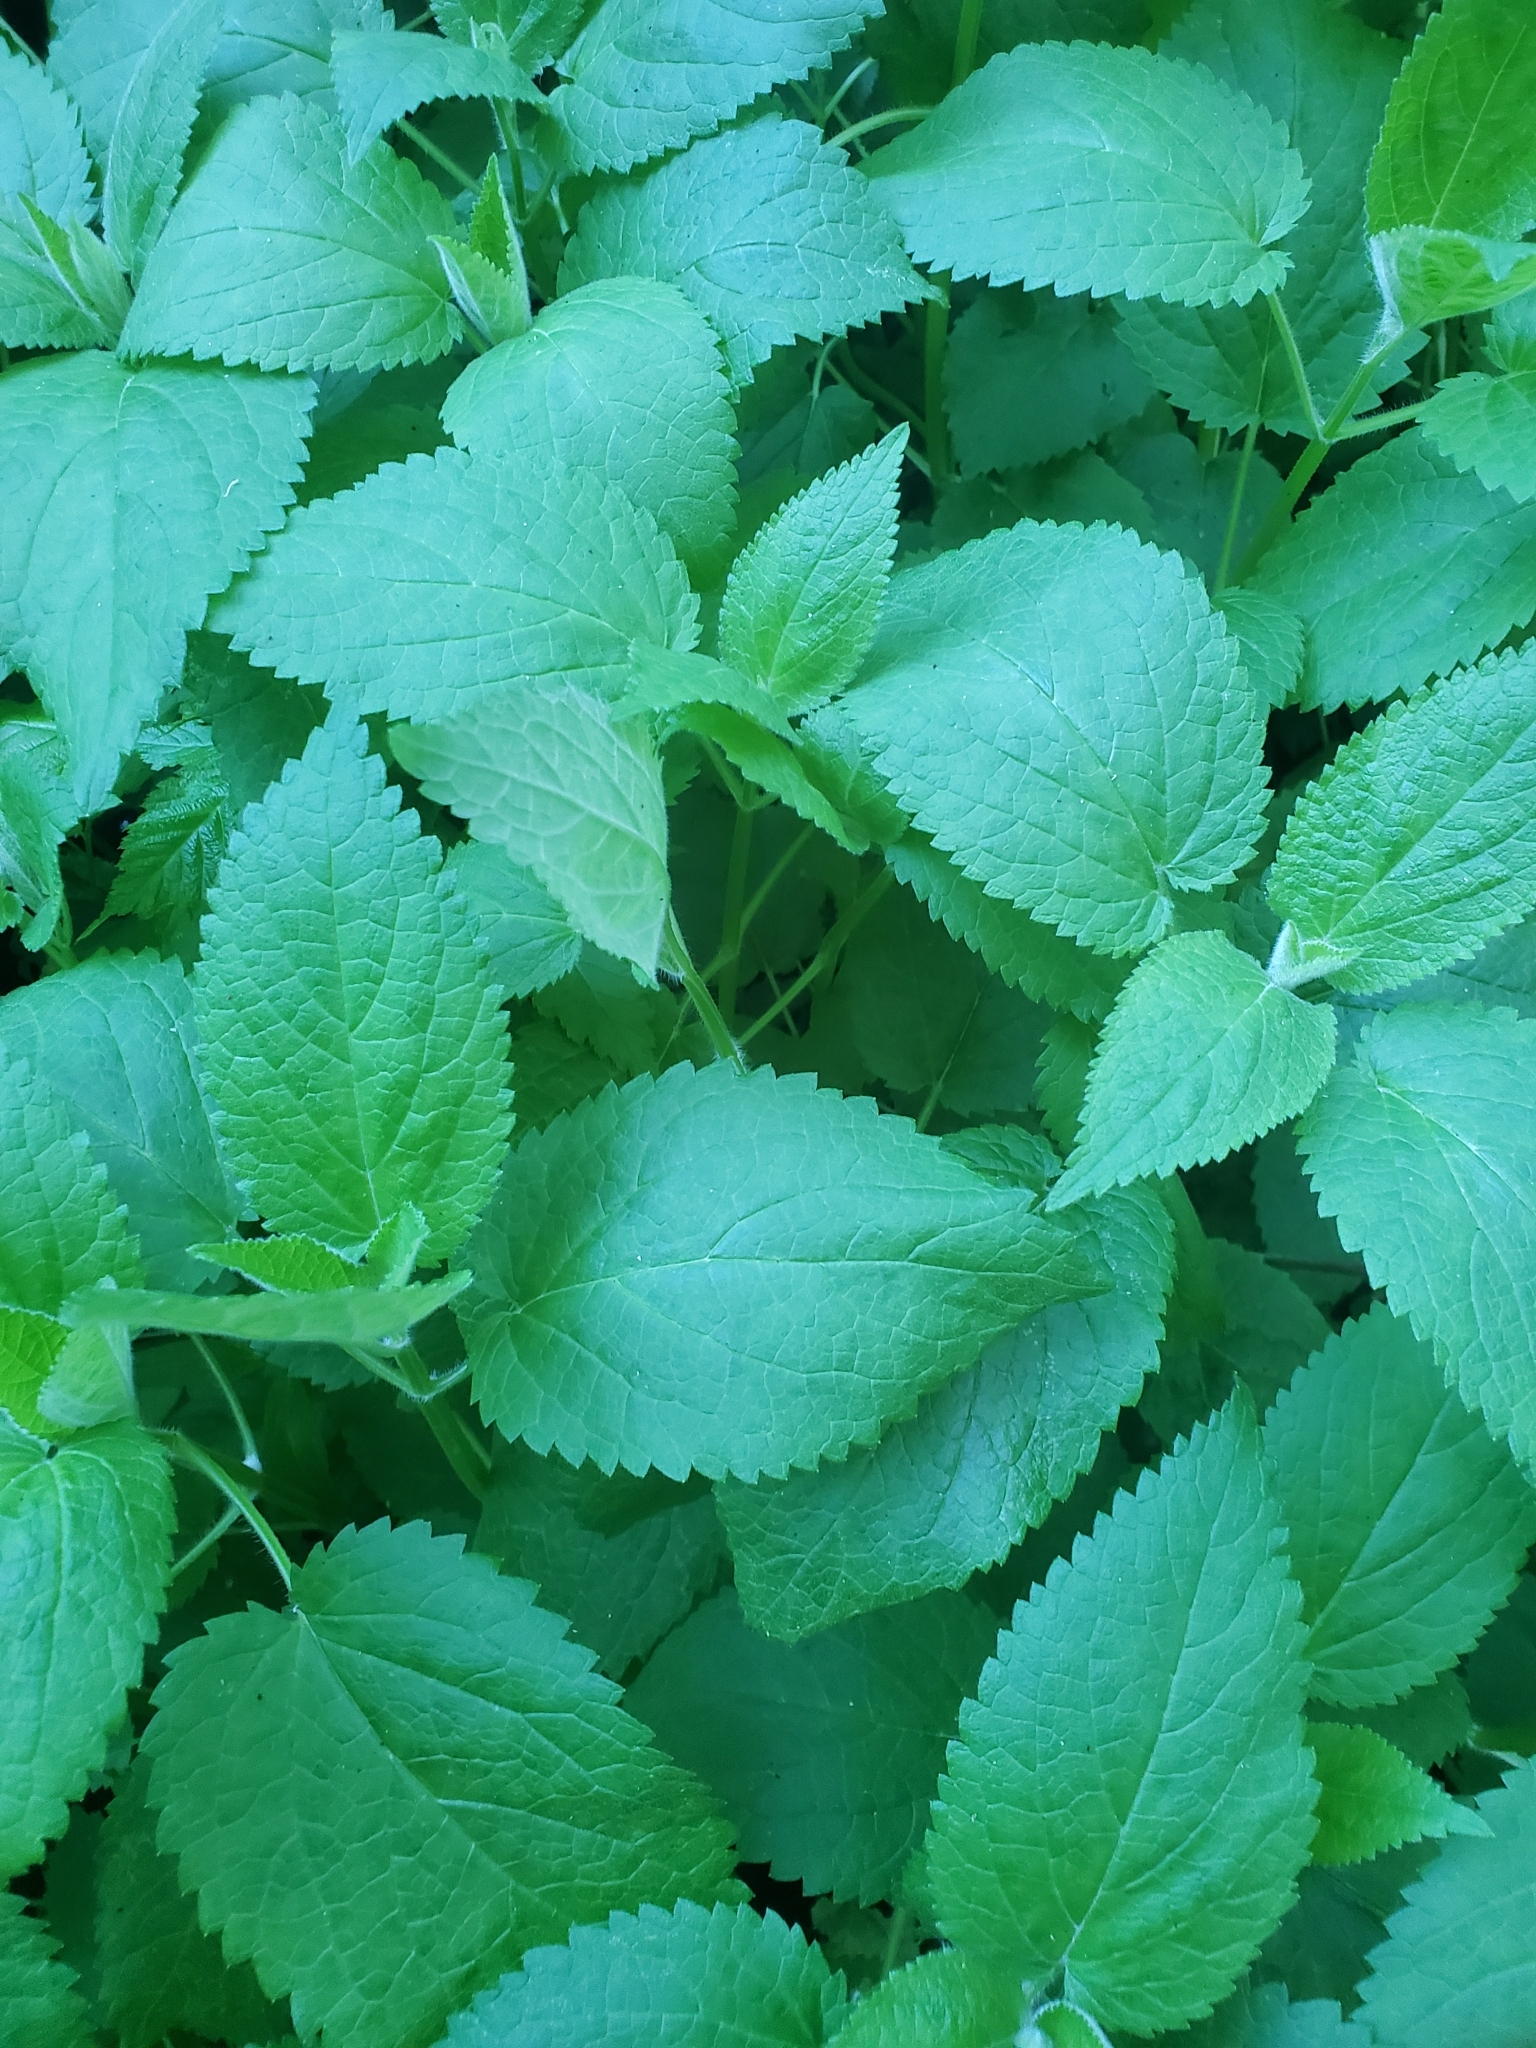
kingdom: Plantae
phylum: Tracheophyta
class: Magnoliopsida
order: Lamiales
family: Lamiaceae
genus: Stachys
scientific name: Stachys chamissonis
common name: Coastal hedge-nettle
